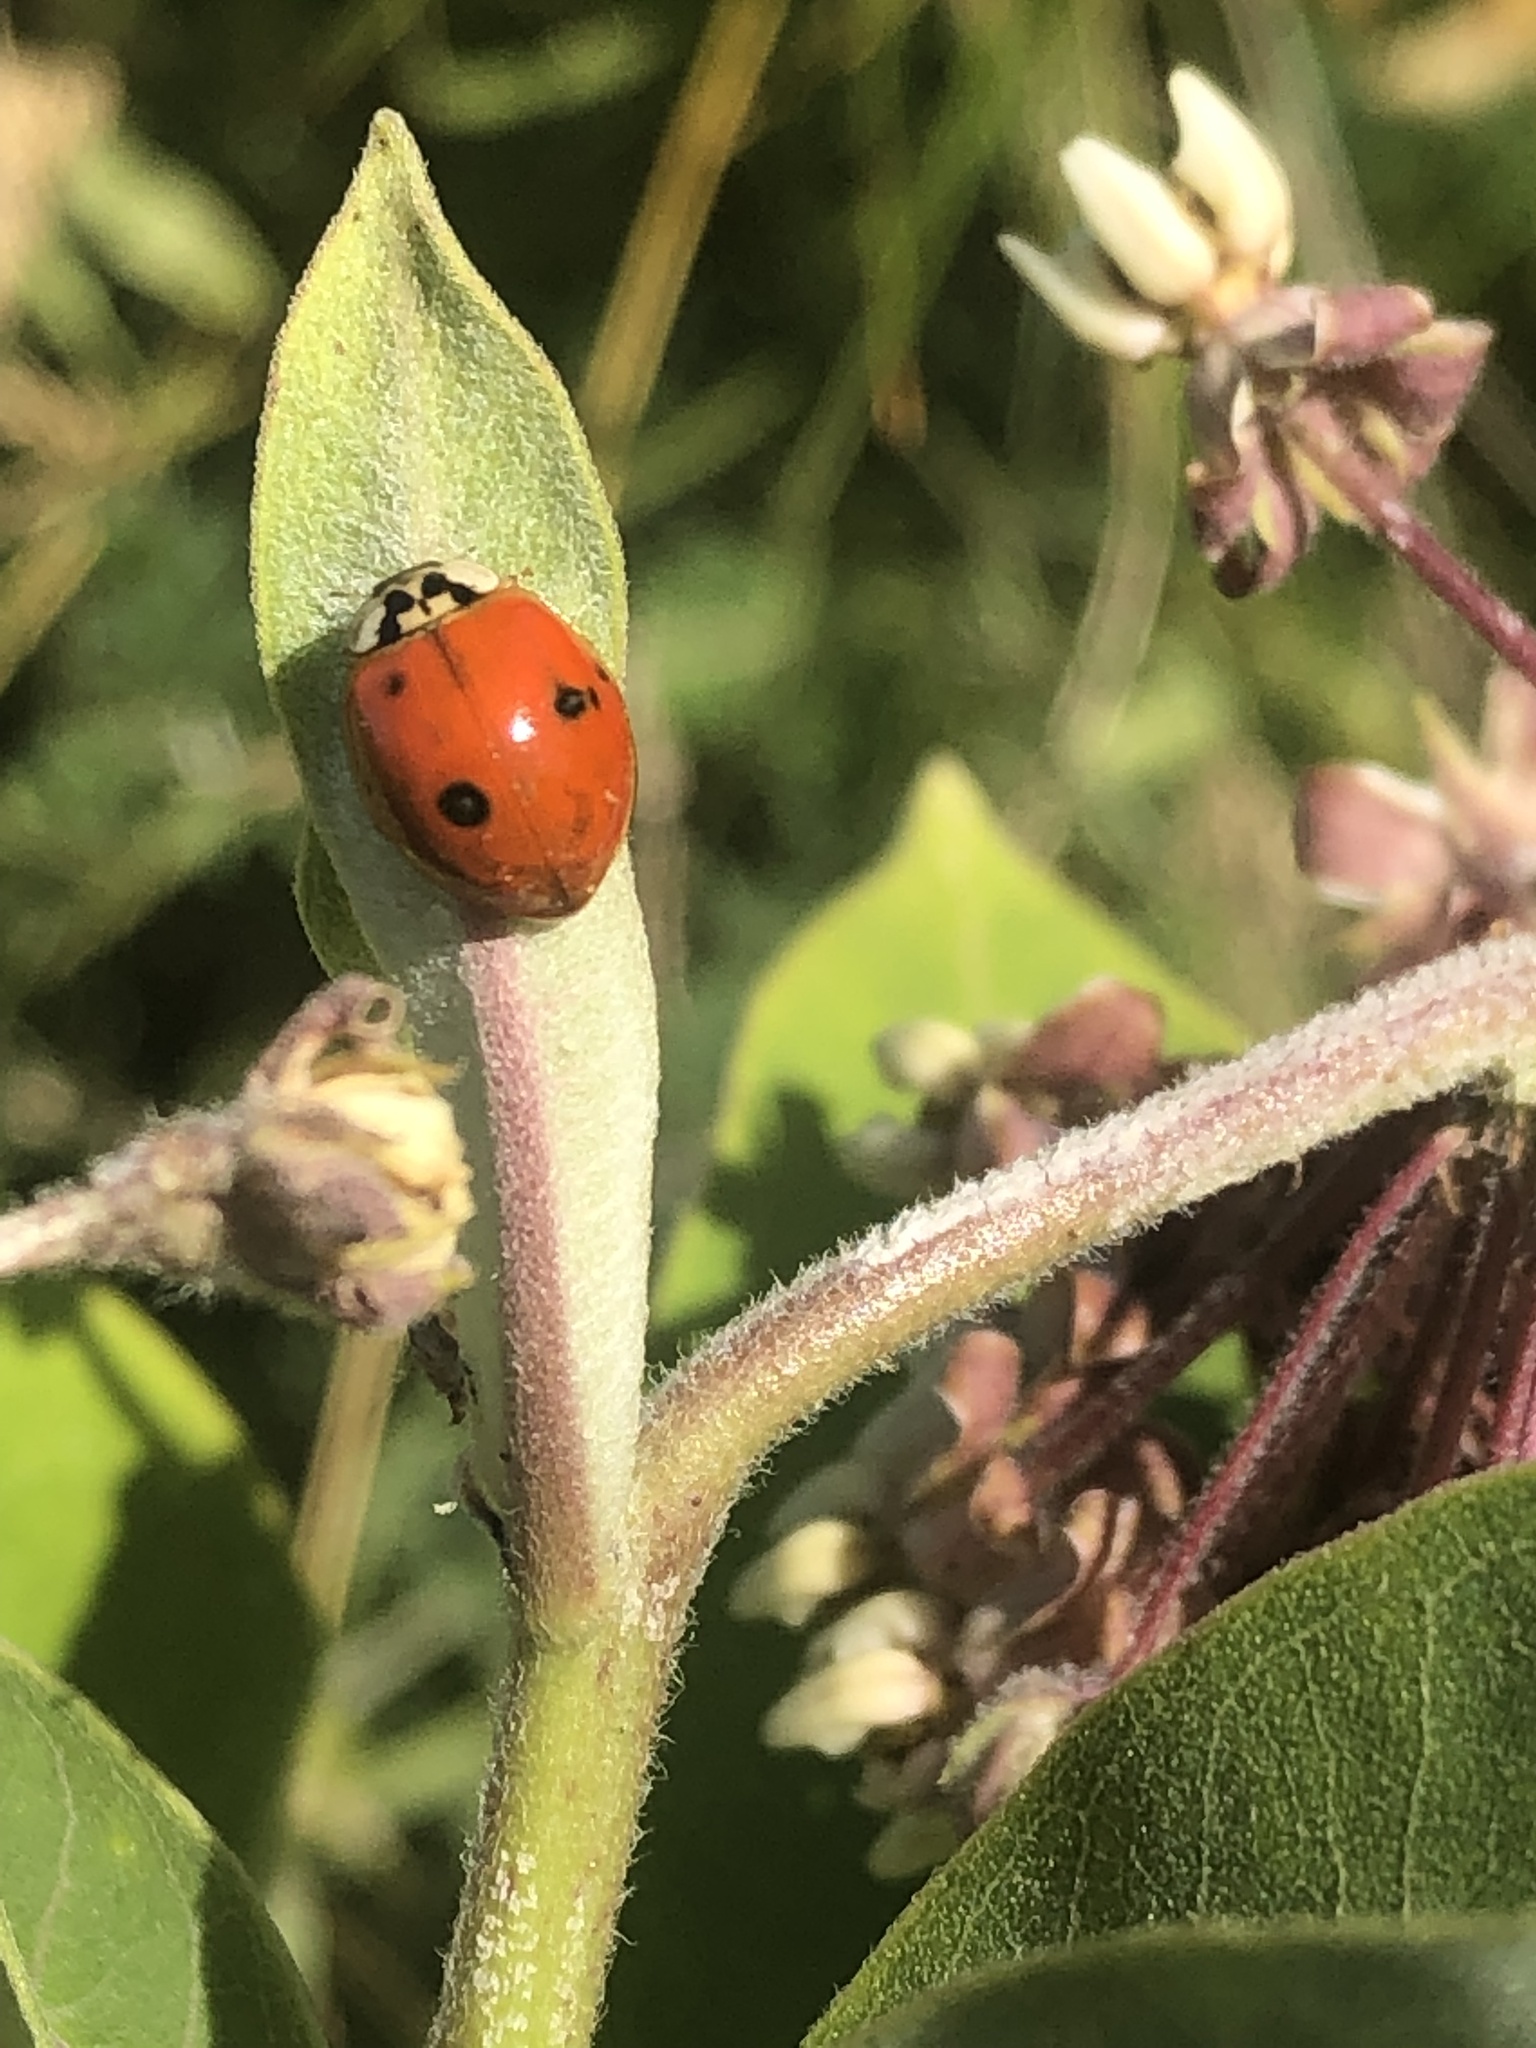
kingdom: Animalia
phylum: Arthropoda
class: Insecta
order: Coleoptera
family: Coccinellidae
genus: Harmonia
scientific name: Harmonia axyridis
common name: Harlequin ladybird
